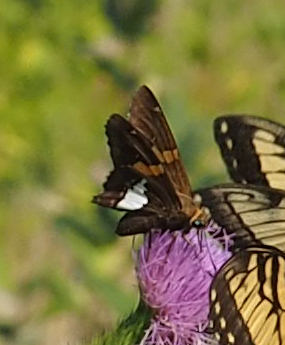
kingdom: Animalia
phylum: Arthropoda
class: Insecta
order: Lepidoptera
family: Hesperiidae
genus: Epargyreus
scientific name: Epargyreus clarus
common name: Silver-spotted skipper
